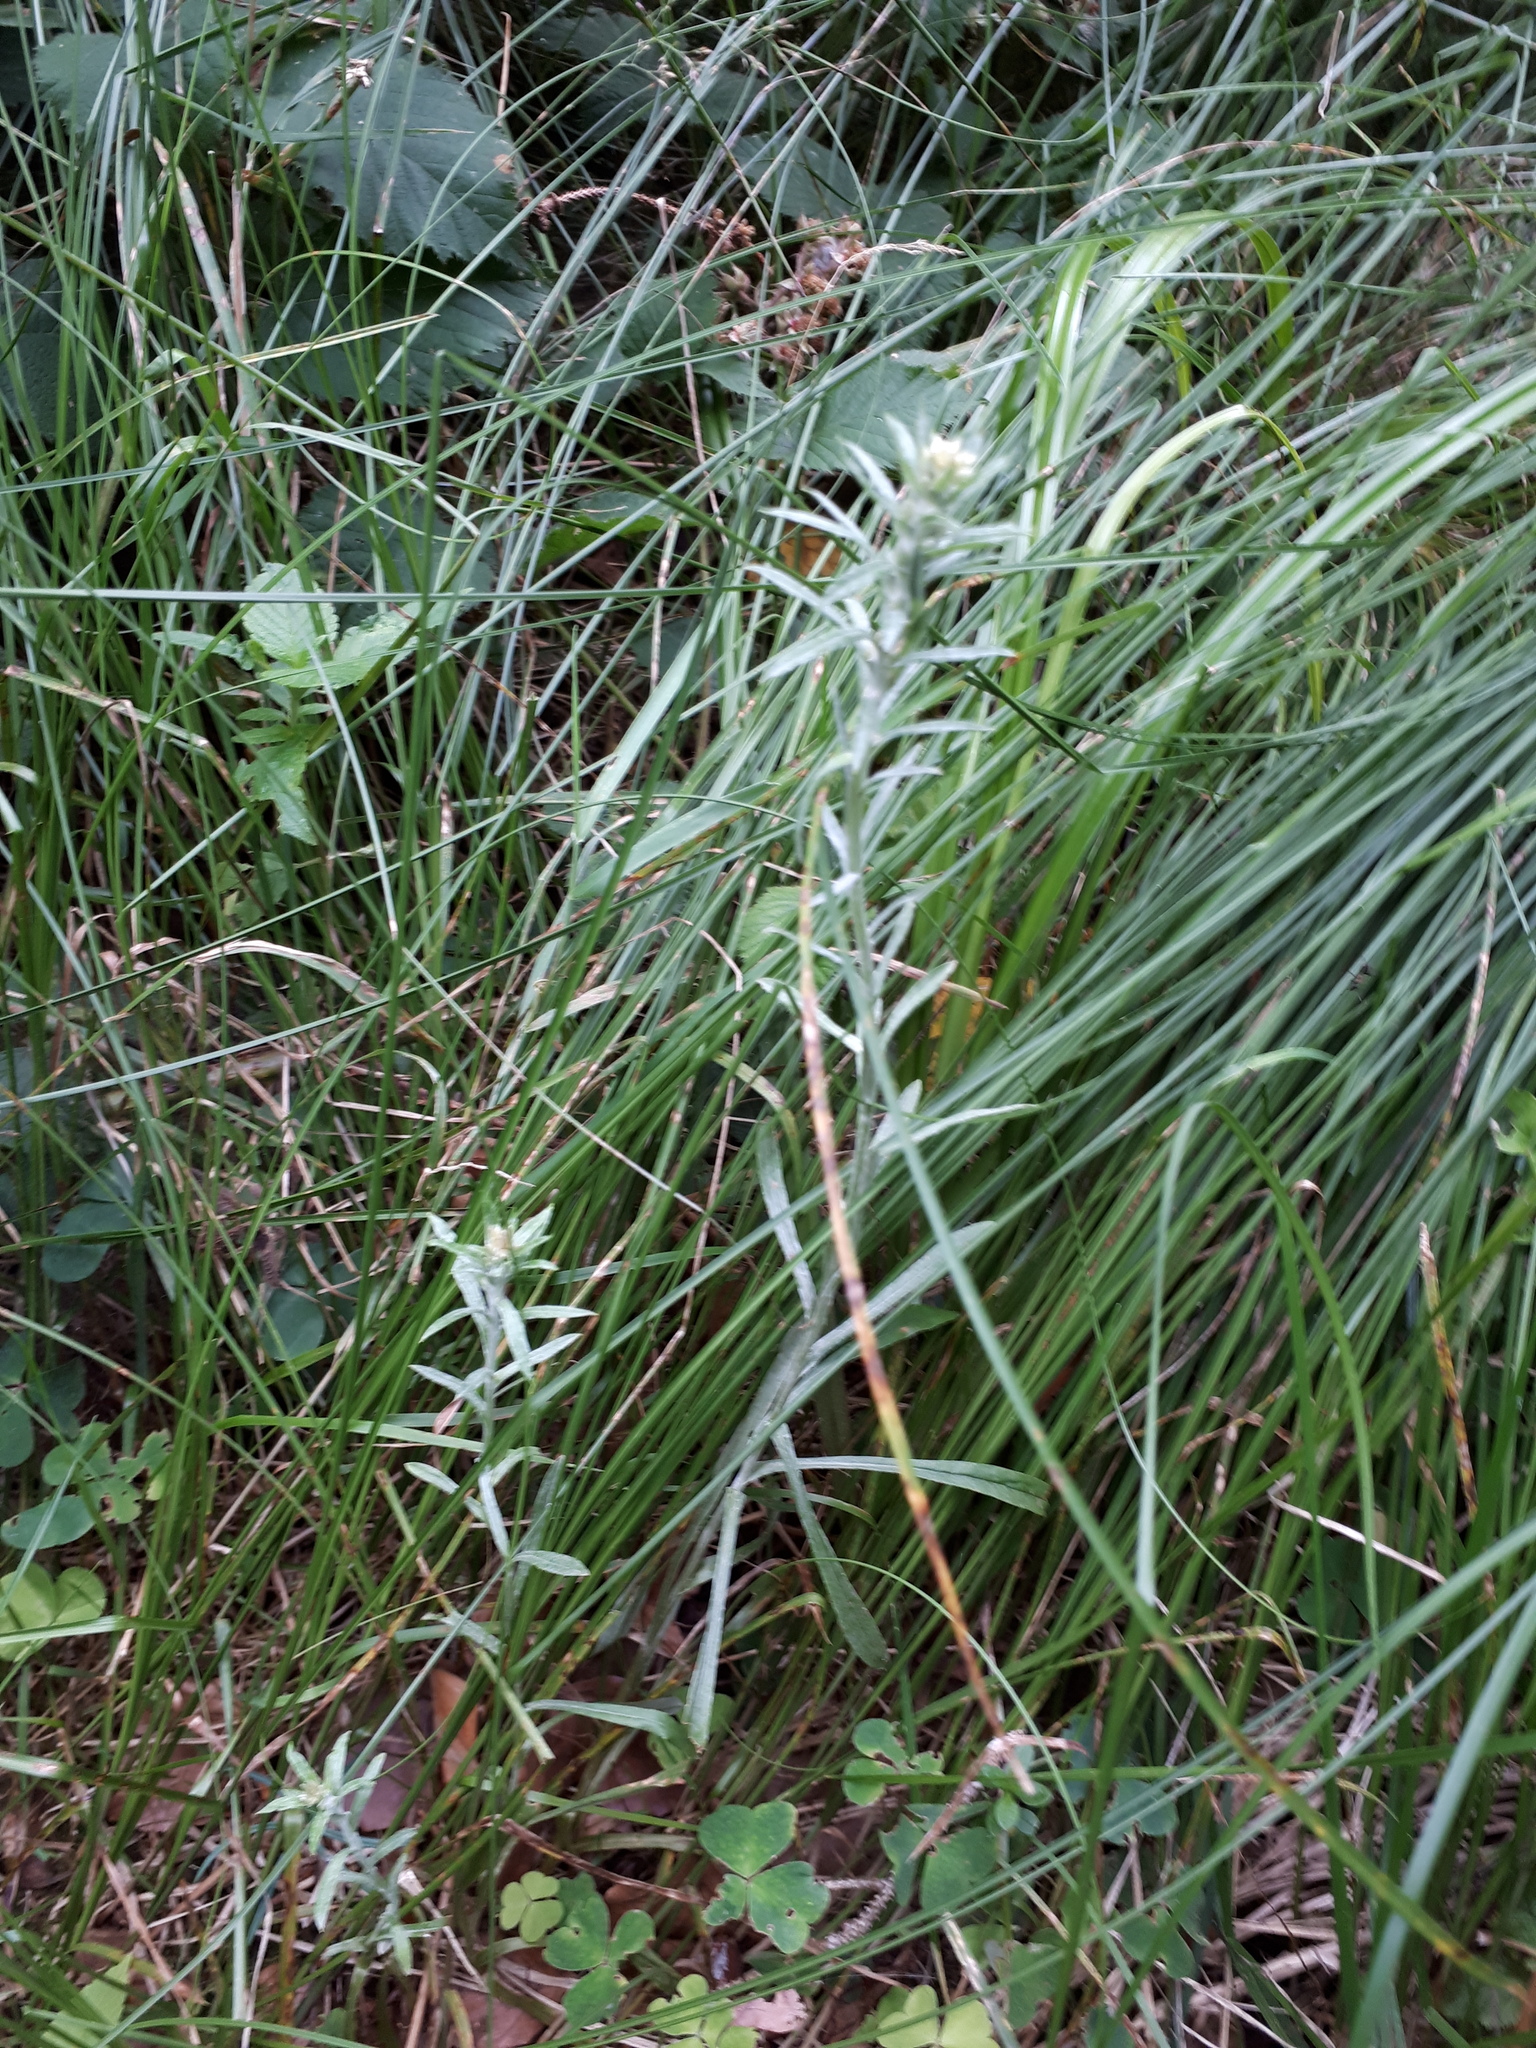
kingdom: Plantae
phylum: Tracheophyta
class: Magnoliopsida
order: Asterales
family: Asteraceae
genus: Omalotheca
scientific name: Omalotheca sylvatica
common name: Heath cudweed
